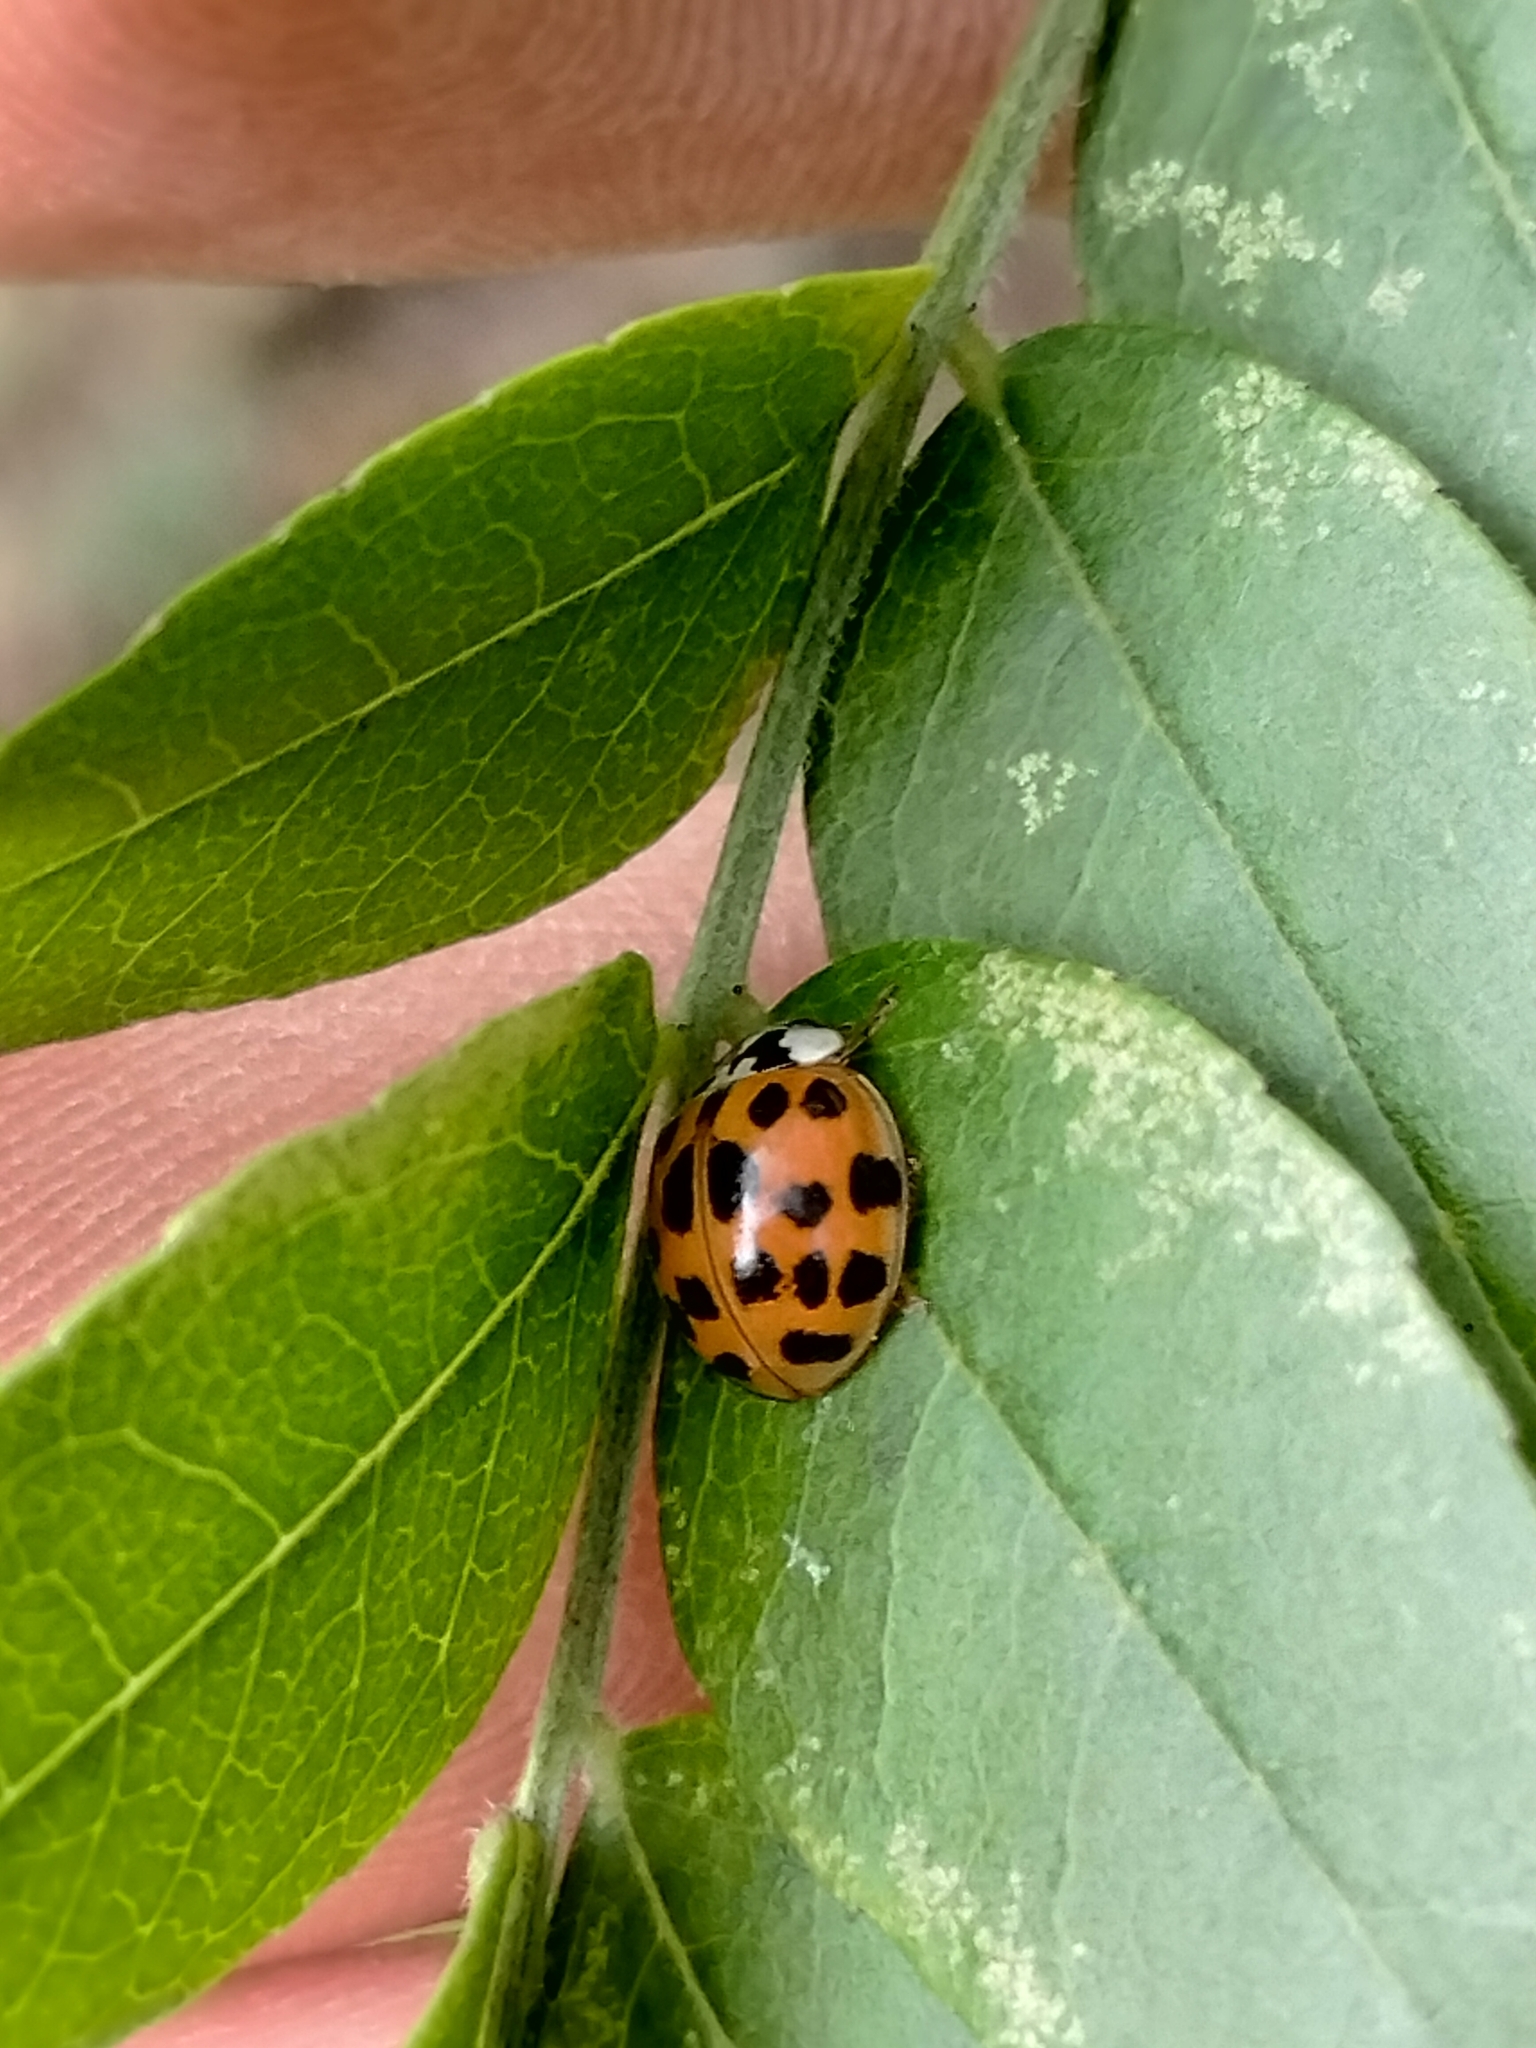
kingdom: Animalia
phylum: Arthropoda
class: Insecta
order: Coleoptera
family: Coccinellidae
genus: Harmonia
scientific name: Harmonia axyridis
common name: Harlequin ladybird
